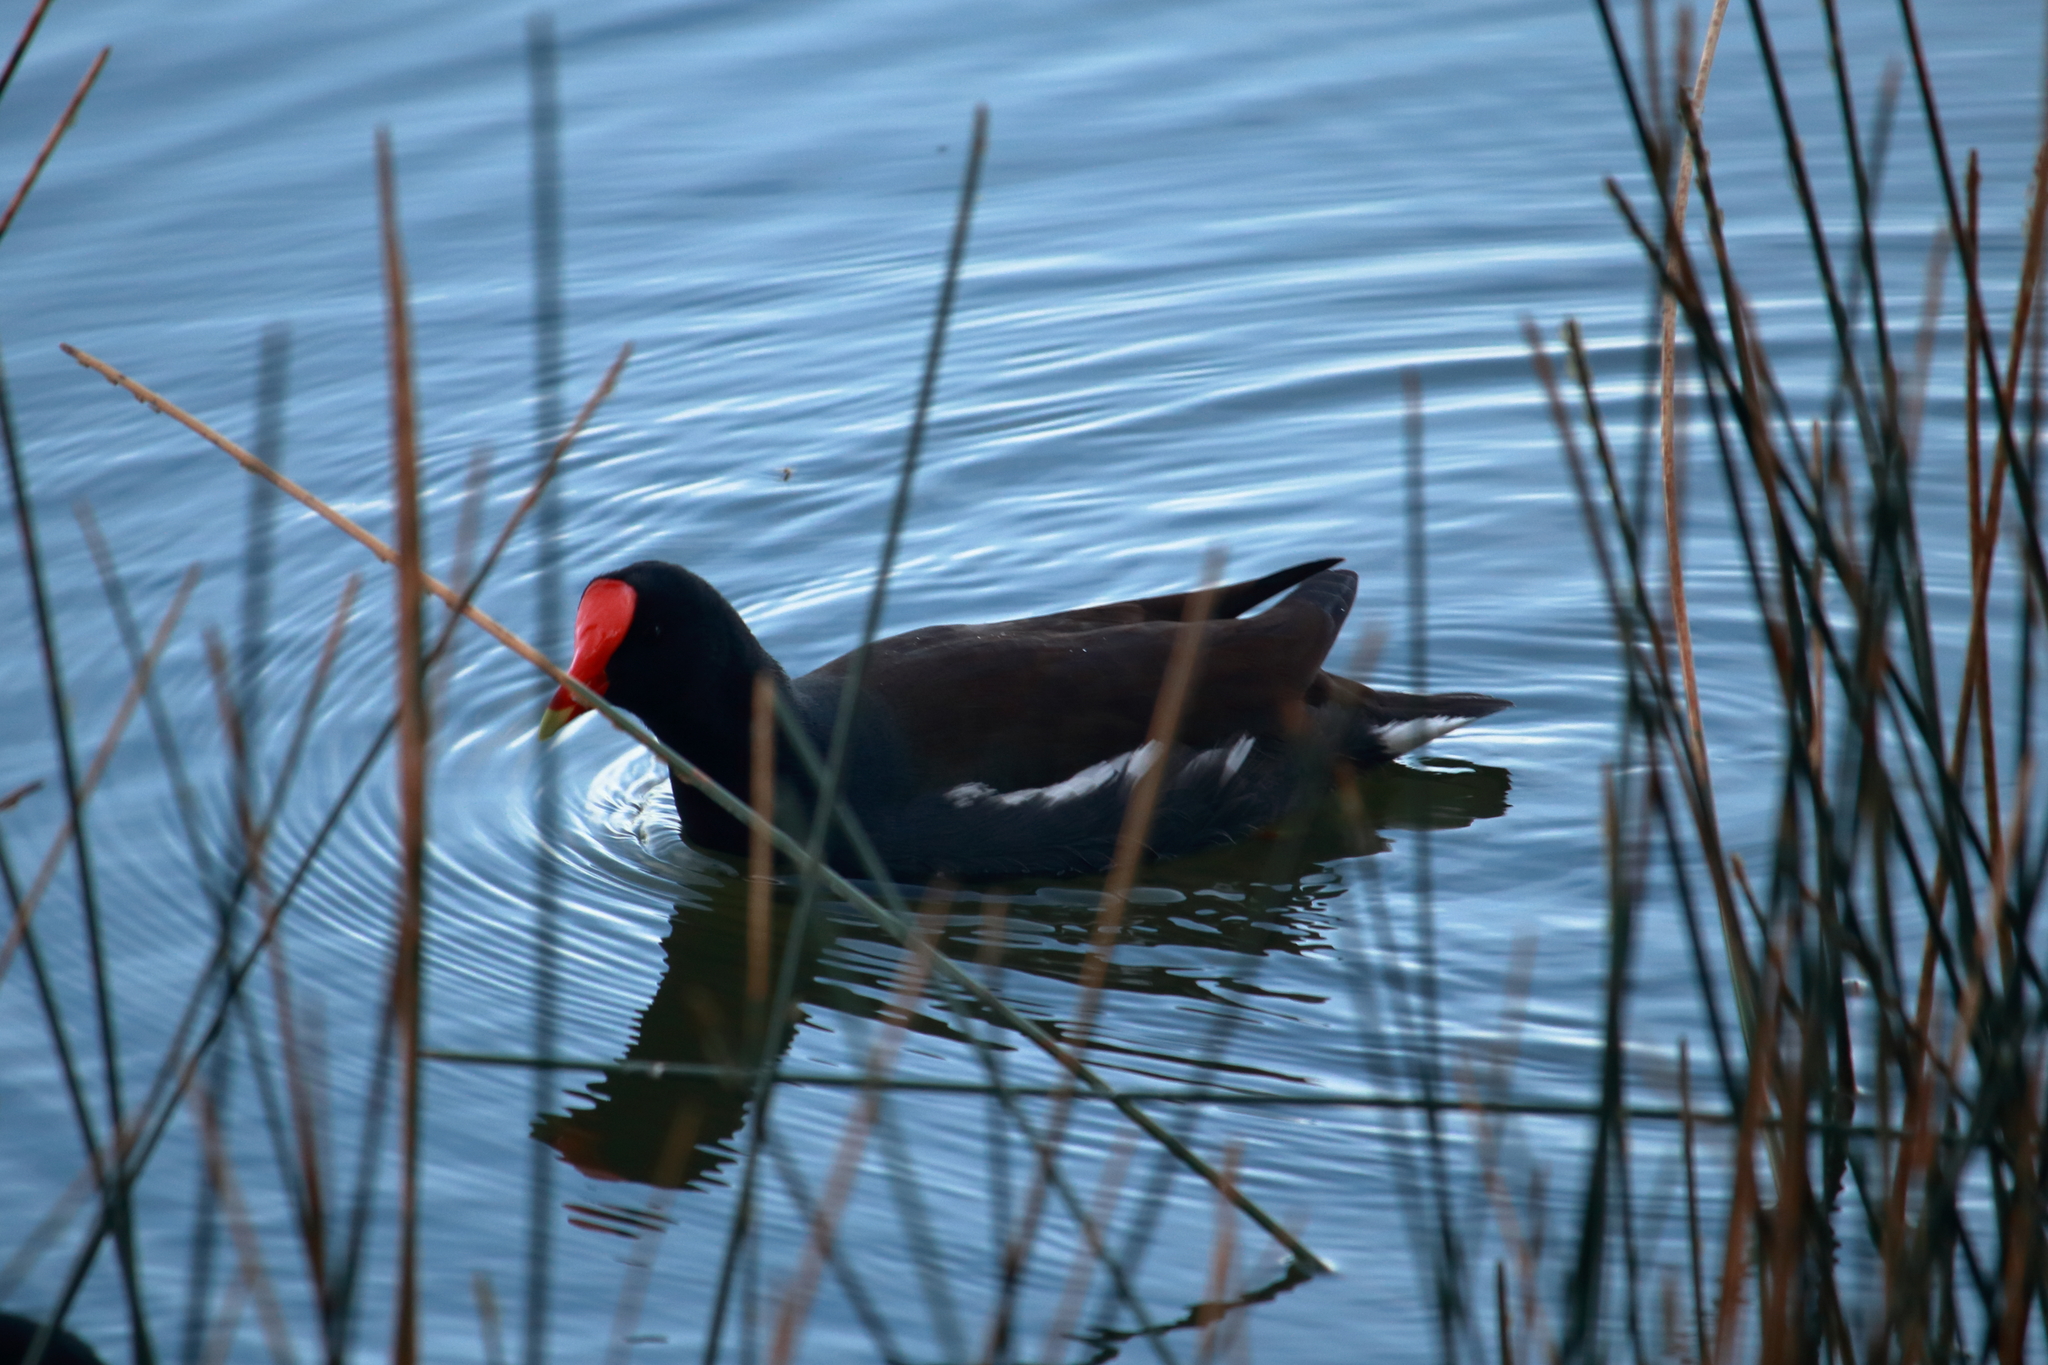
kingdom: Animalia
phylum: Chordata
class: Aves
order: Gruiformes
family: Rallidae
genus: Gallinula
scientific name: Gallinula chloropus
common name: Common moorhen
